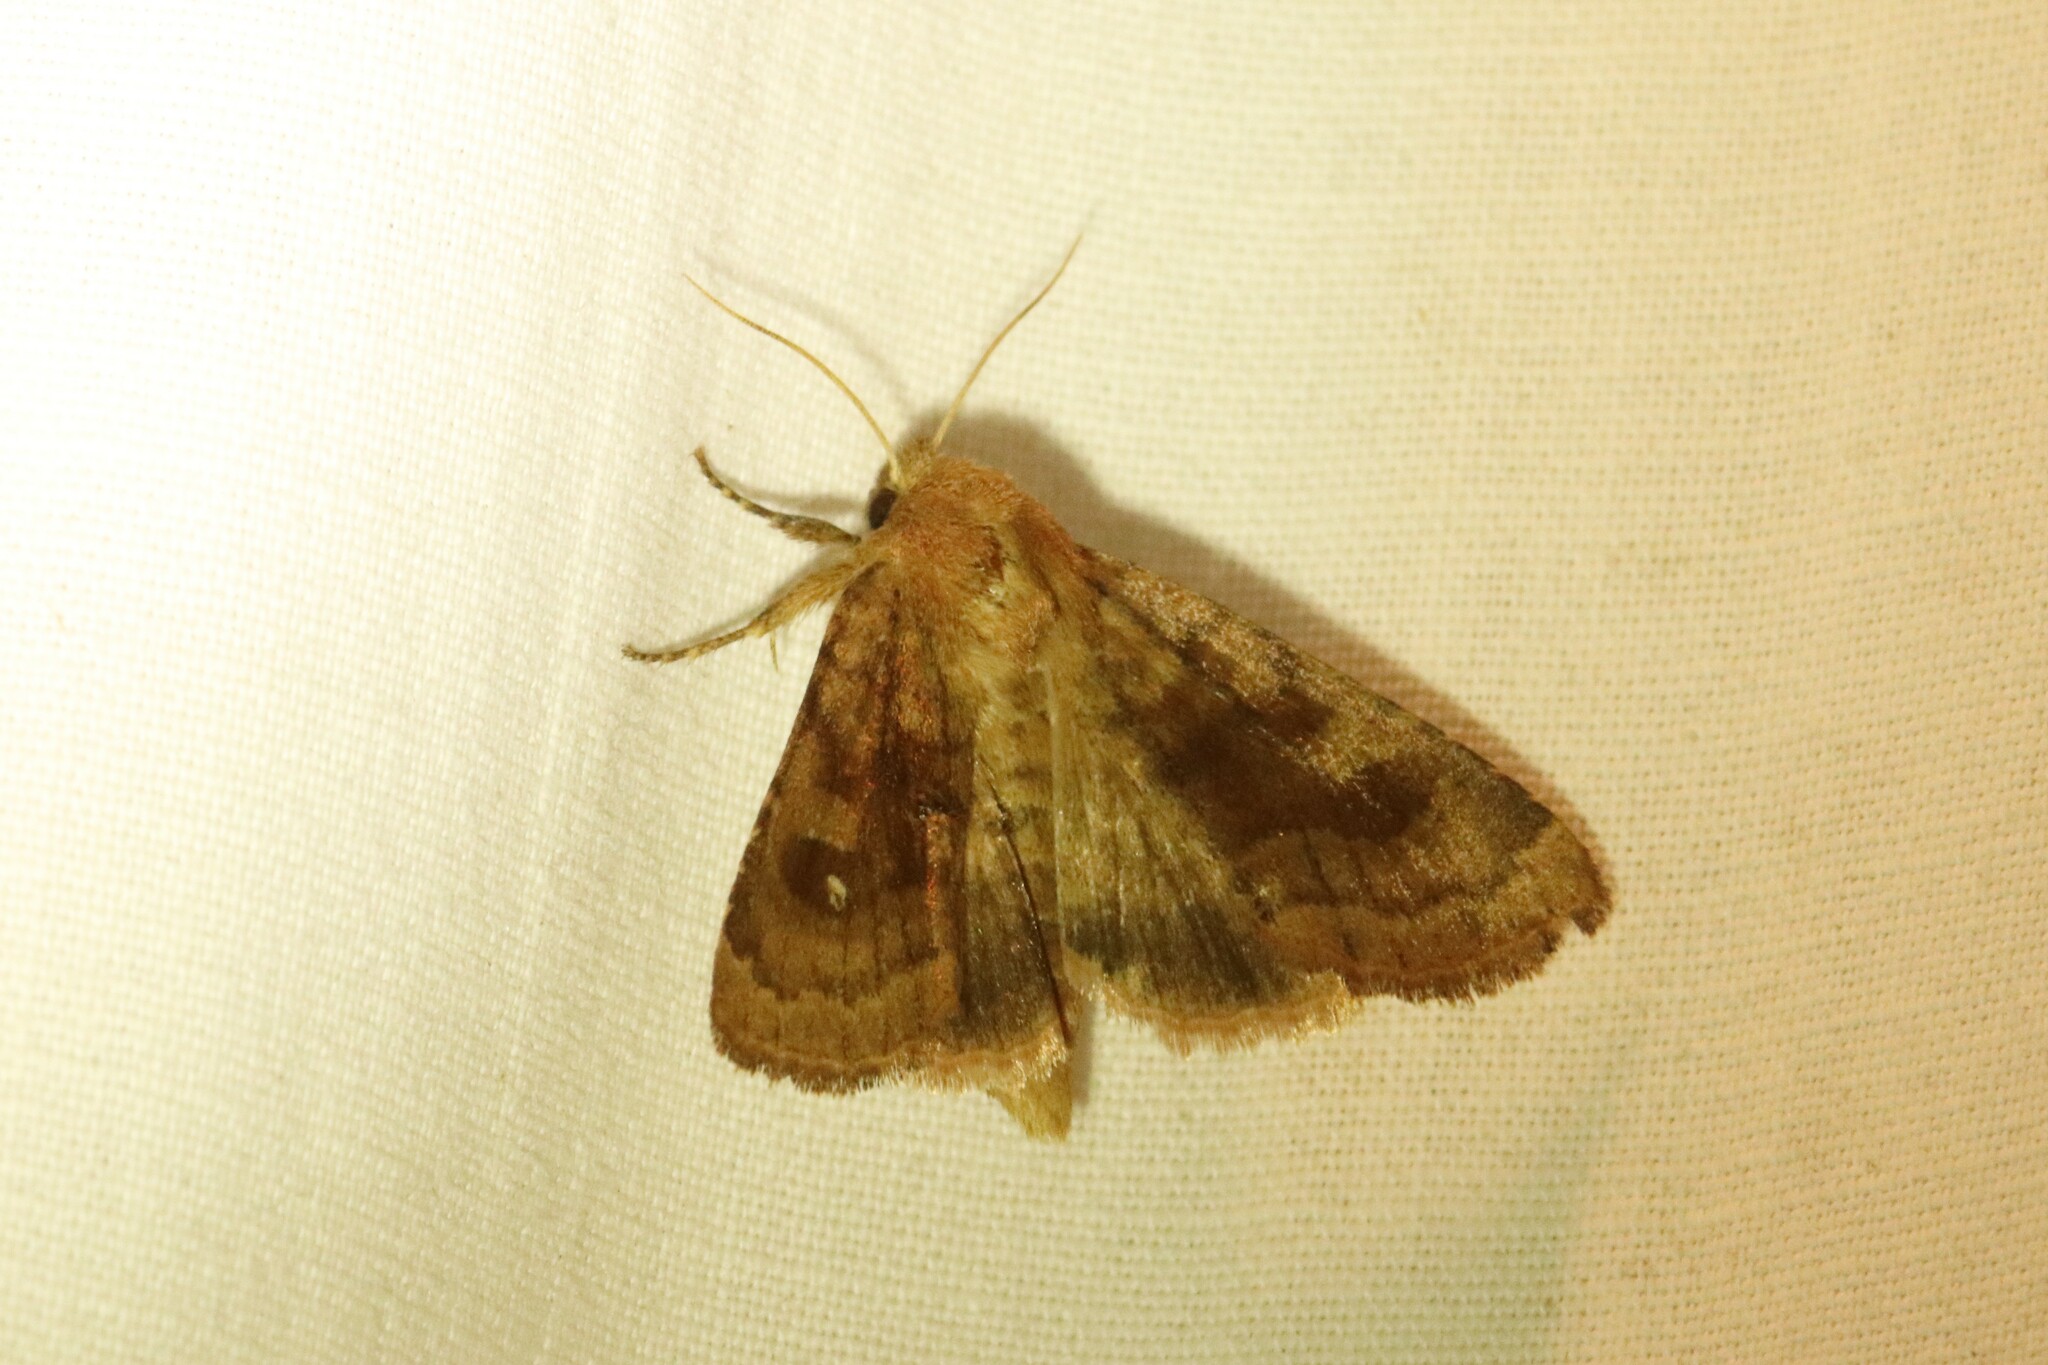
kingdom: Animalia
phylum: Arthropoda
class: Insecta
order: Lepidoptera
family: Noctuidae
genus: Nephelodes
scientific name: Nephelodes minians
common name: Bronzed cutworm
